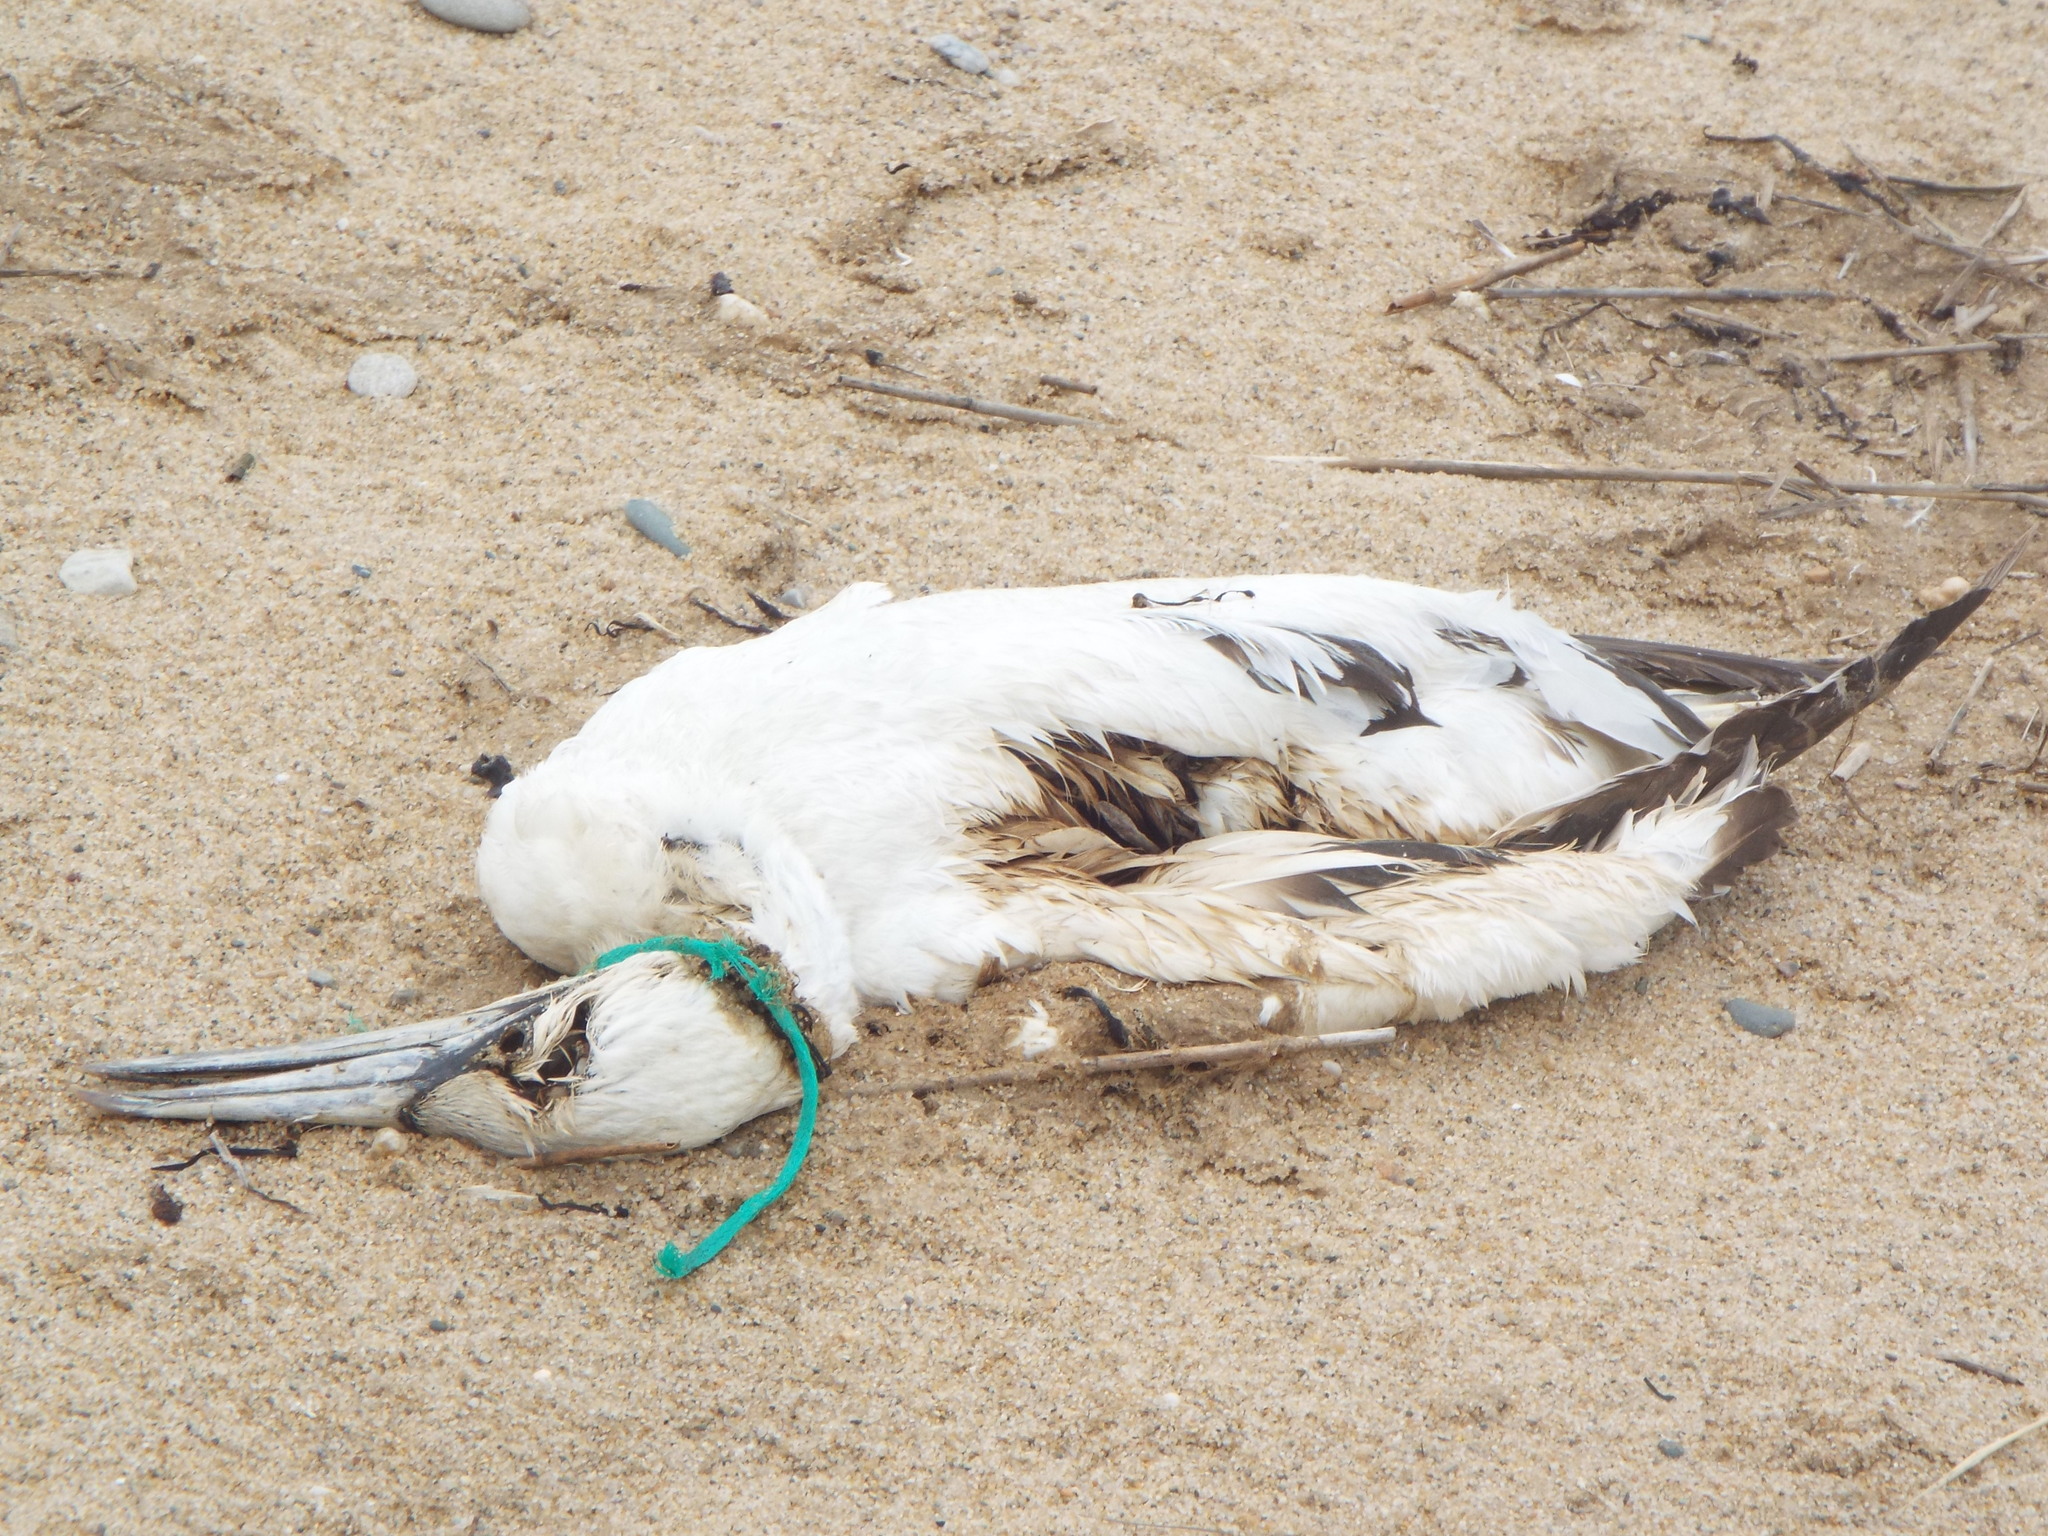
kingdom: Animalia
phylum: Chordata
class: Aves
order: Suliformes
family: Sulidae
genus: Morus
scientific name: Morus bassanus
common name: Northern gannet
